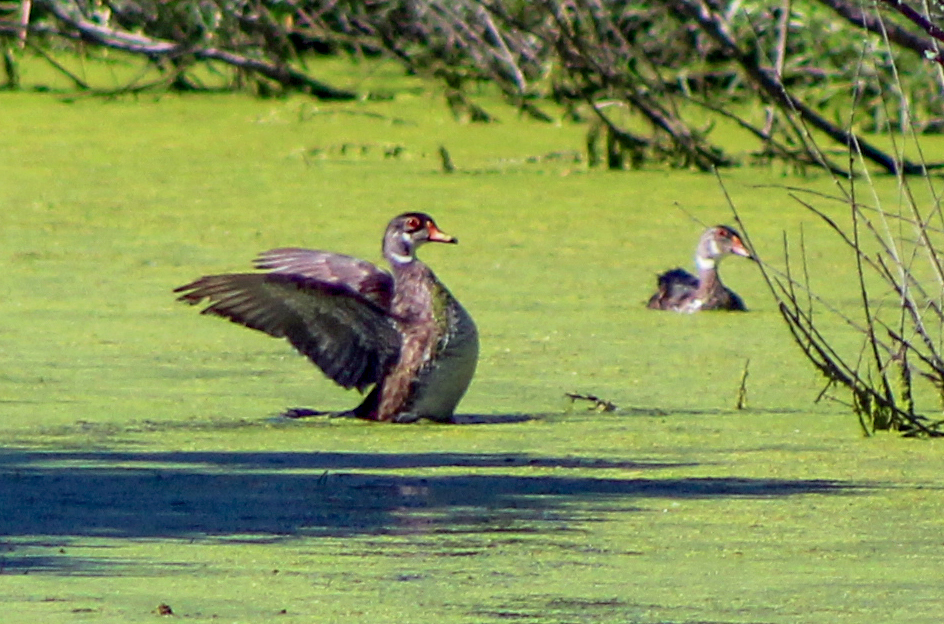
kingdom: Animalia
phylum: Chordata
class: Aves
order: Anseriformes
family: Anatidae
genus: Aix
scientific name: Aix sponsa
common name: Wood duck
